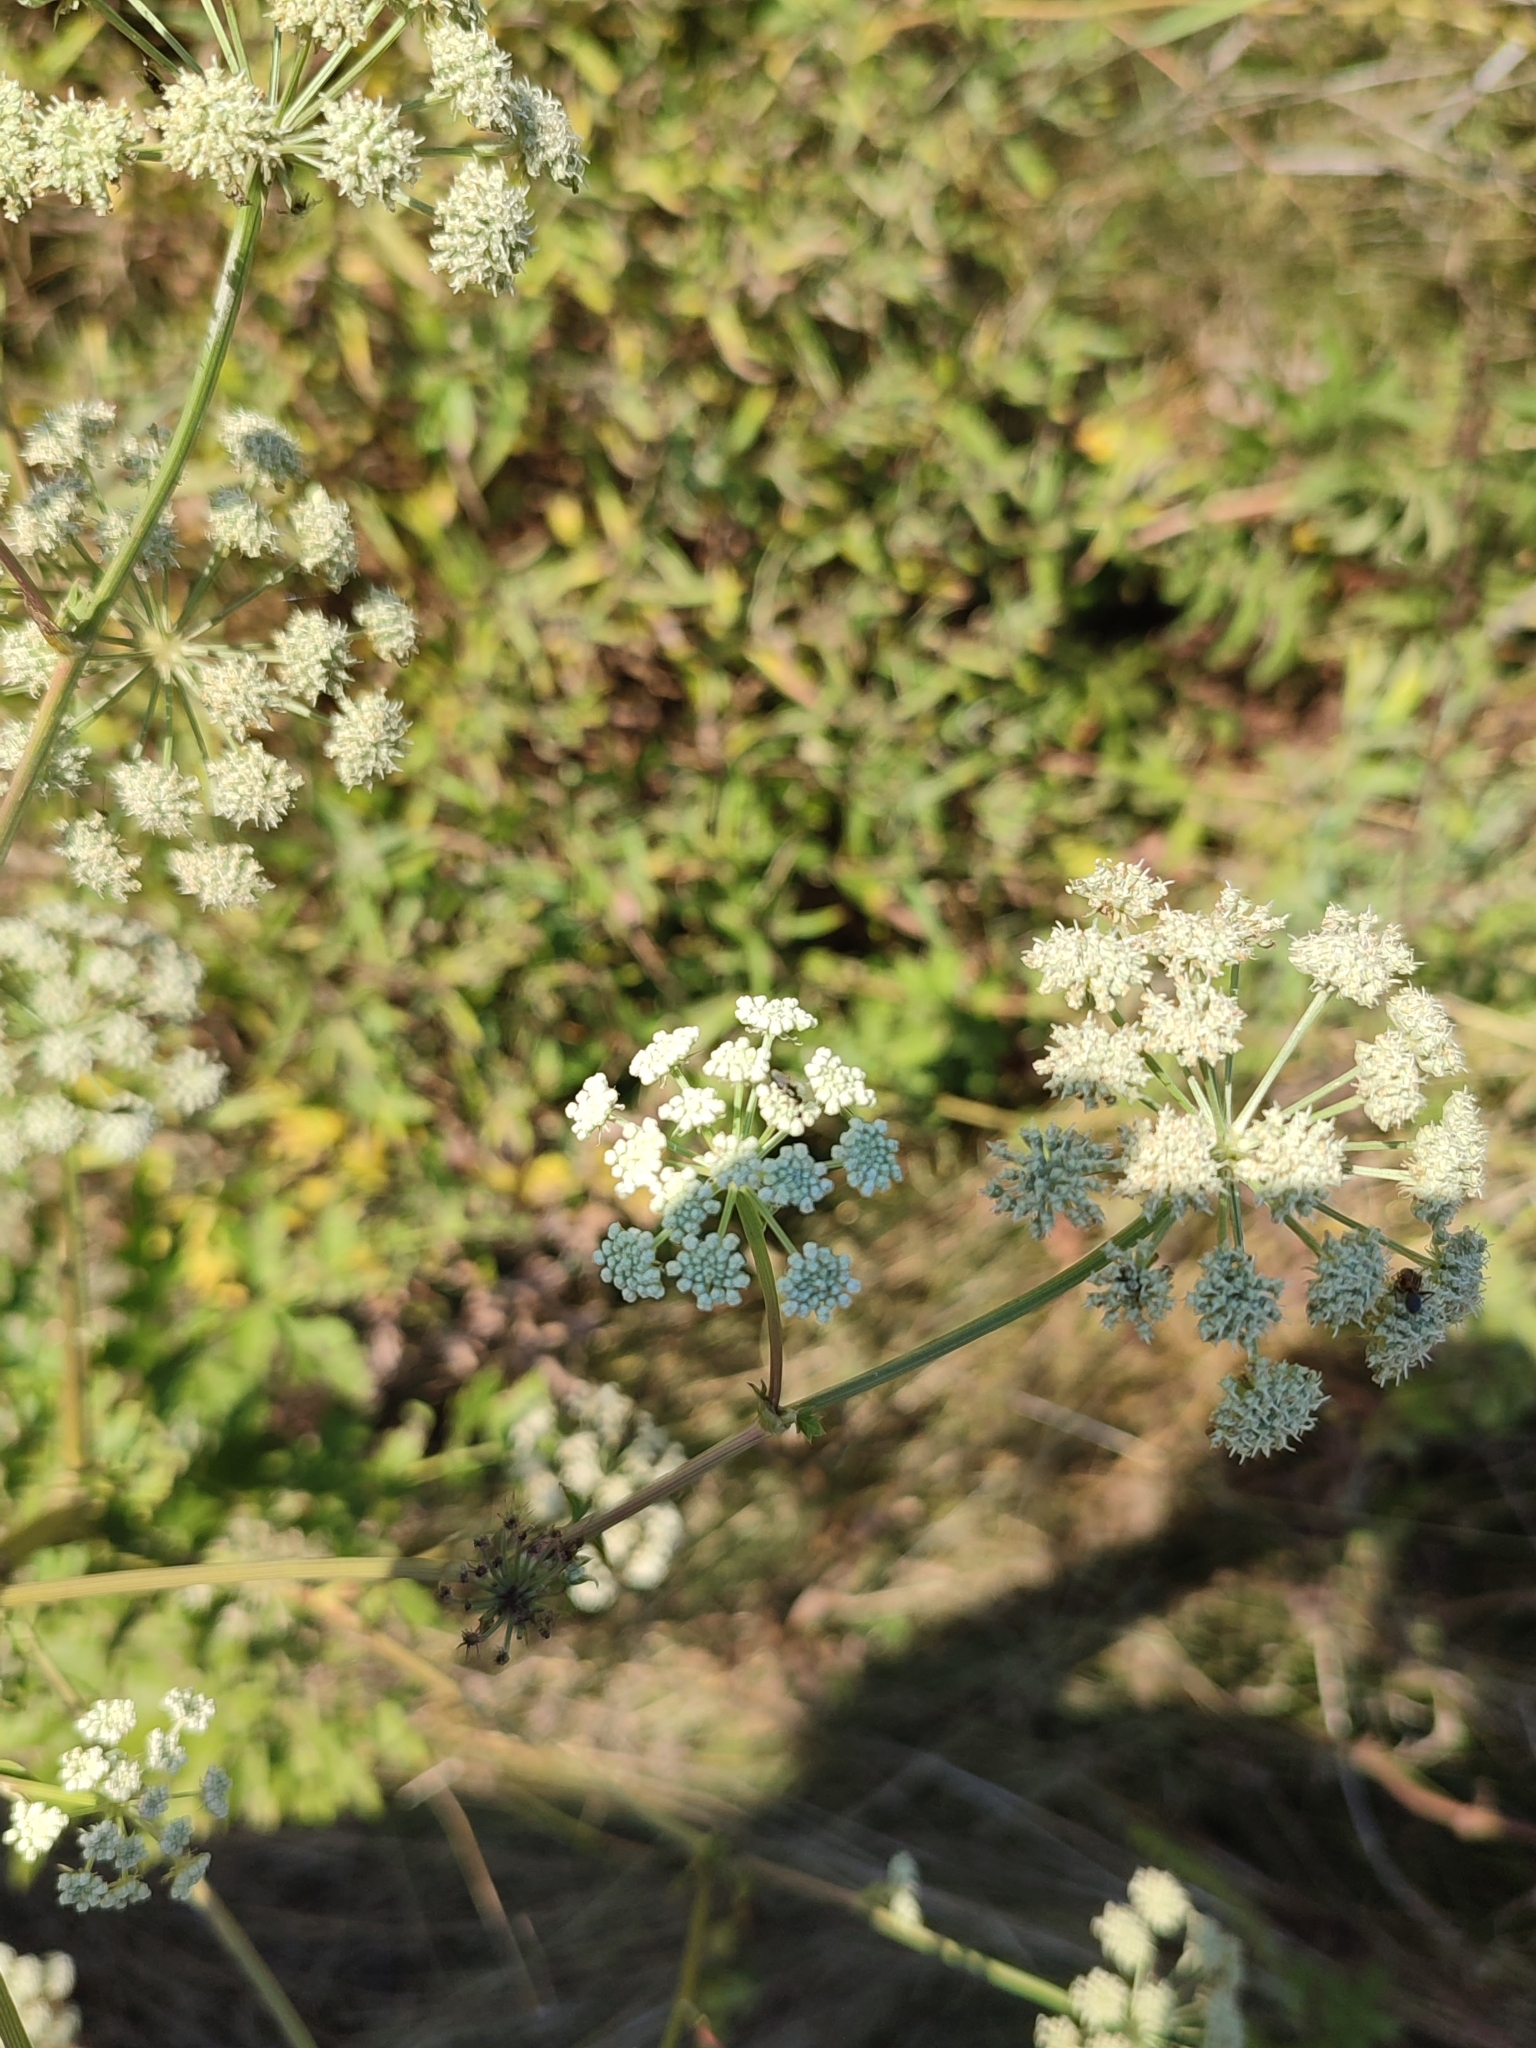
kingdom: Plantae
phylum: Tracheophyta
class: Magnoliopsida
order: Apiales
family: Apiaceae
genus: Seseli
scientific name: Seseli libanotis
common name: Mooncarrot
